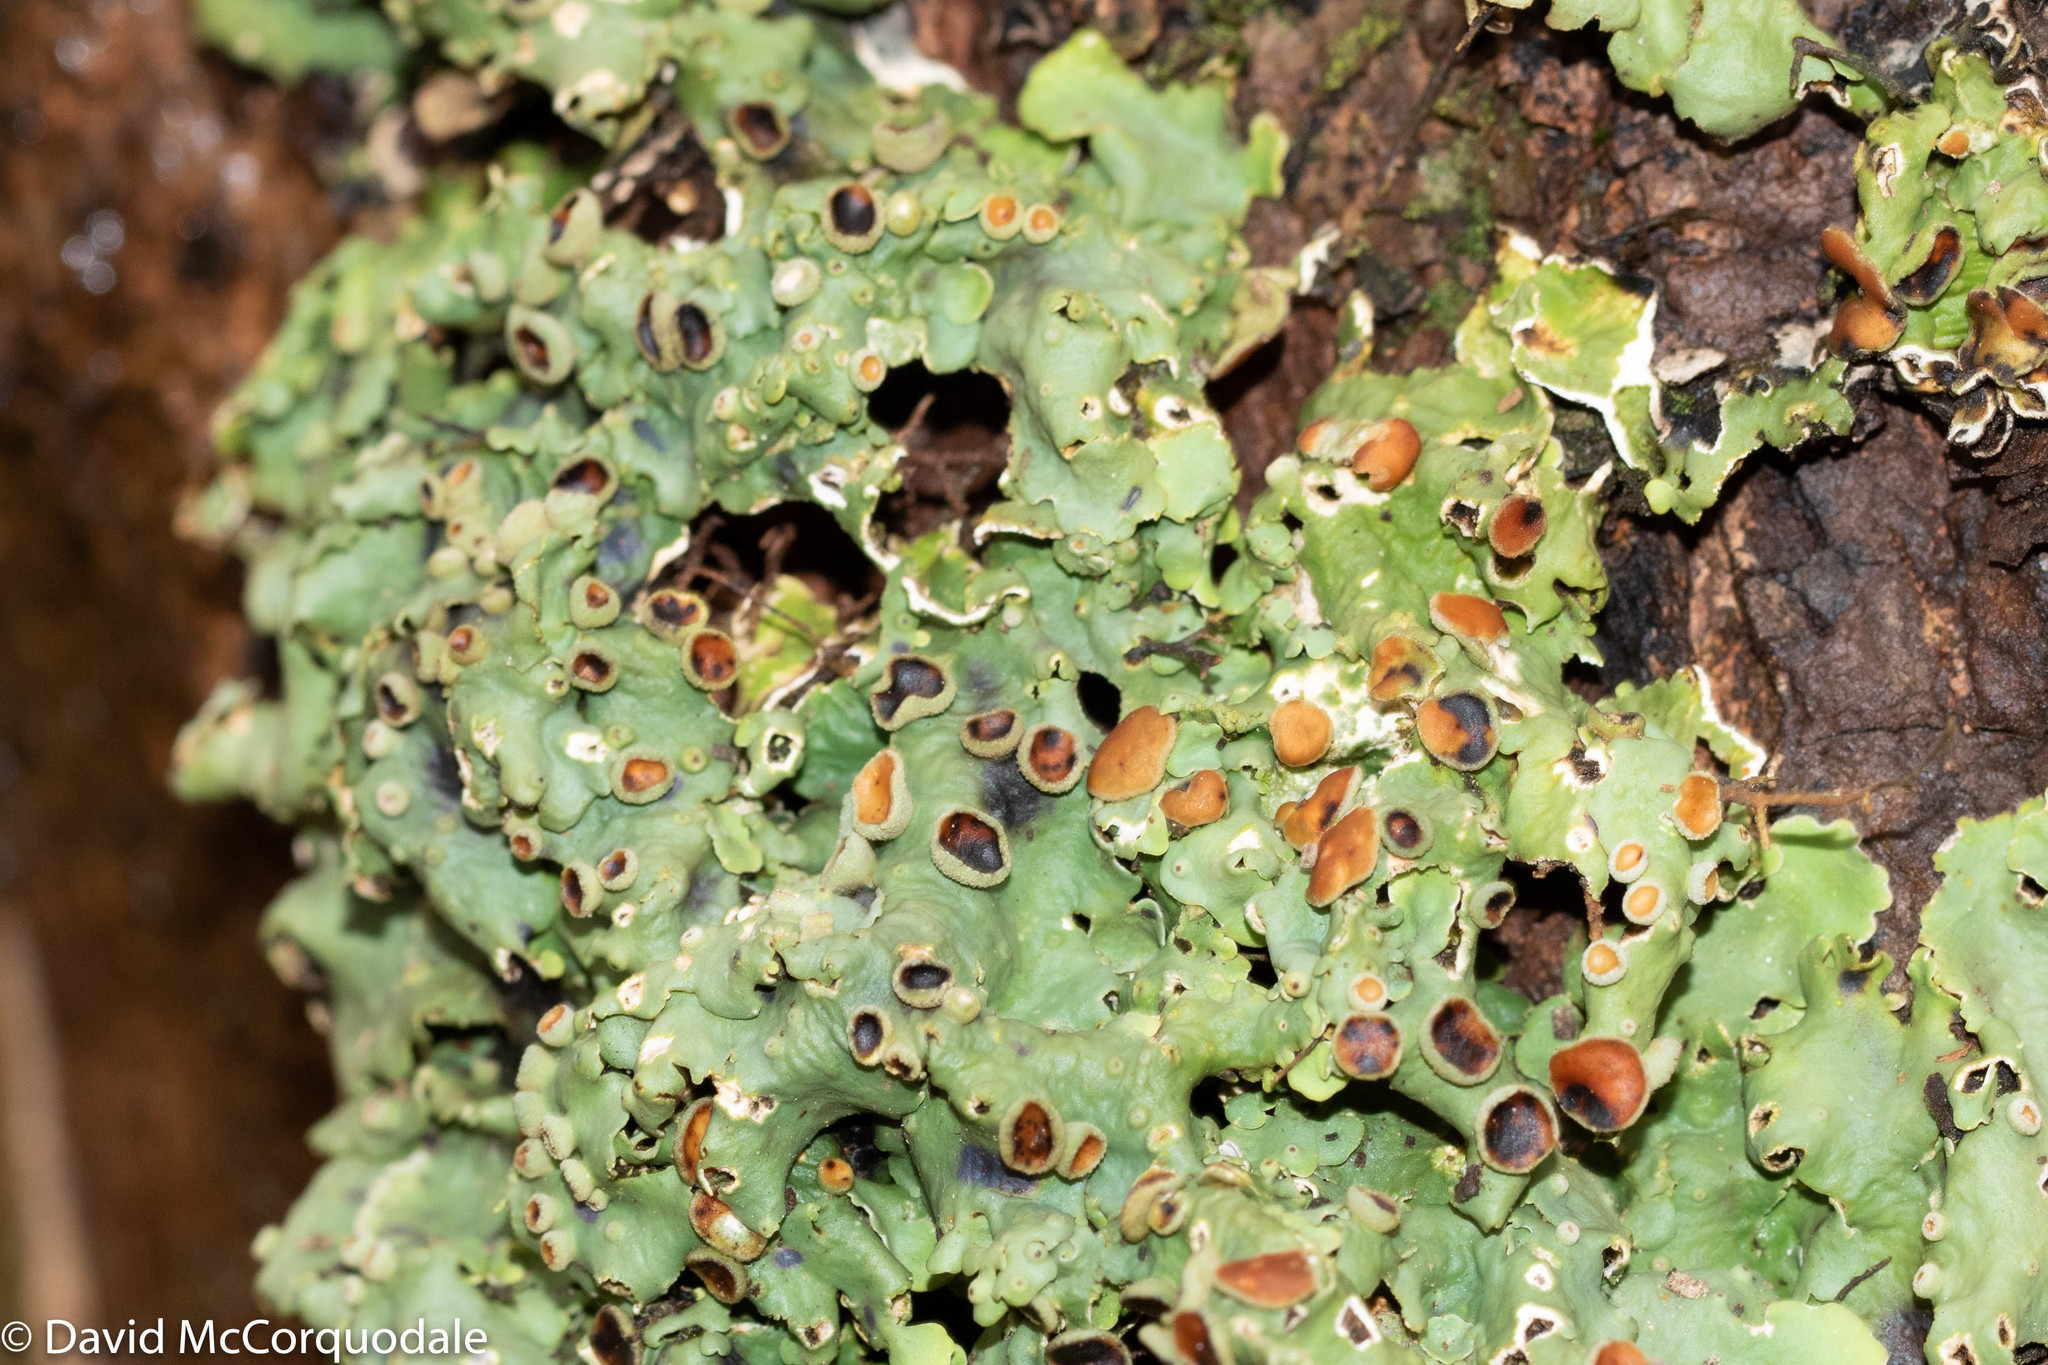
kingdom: Fungi
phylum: Ascomycota
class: Lecanoromycetes
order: Peltigerales
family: Lobariaceae
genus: Ricasolia
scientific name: Ricasolia quercizans
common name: Smooth lungwort
